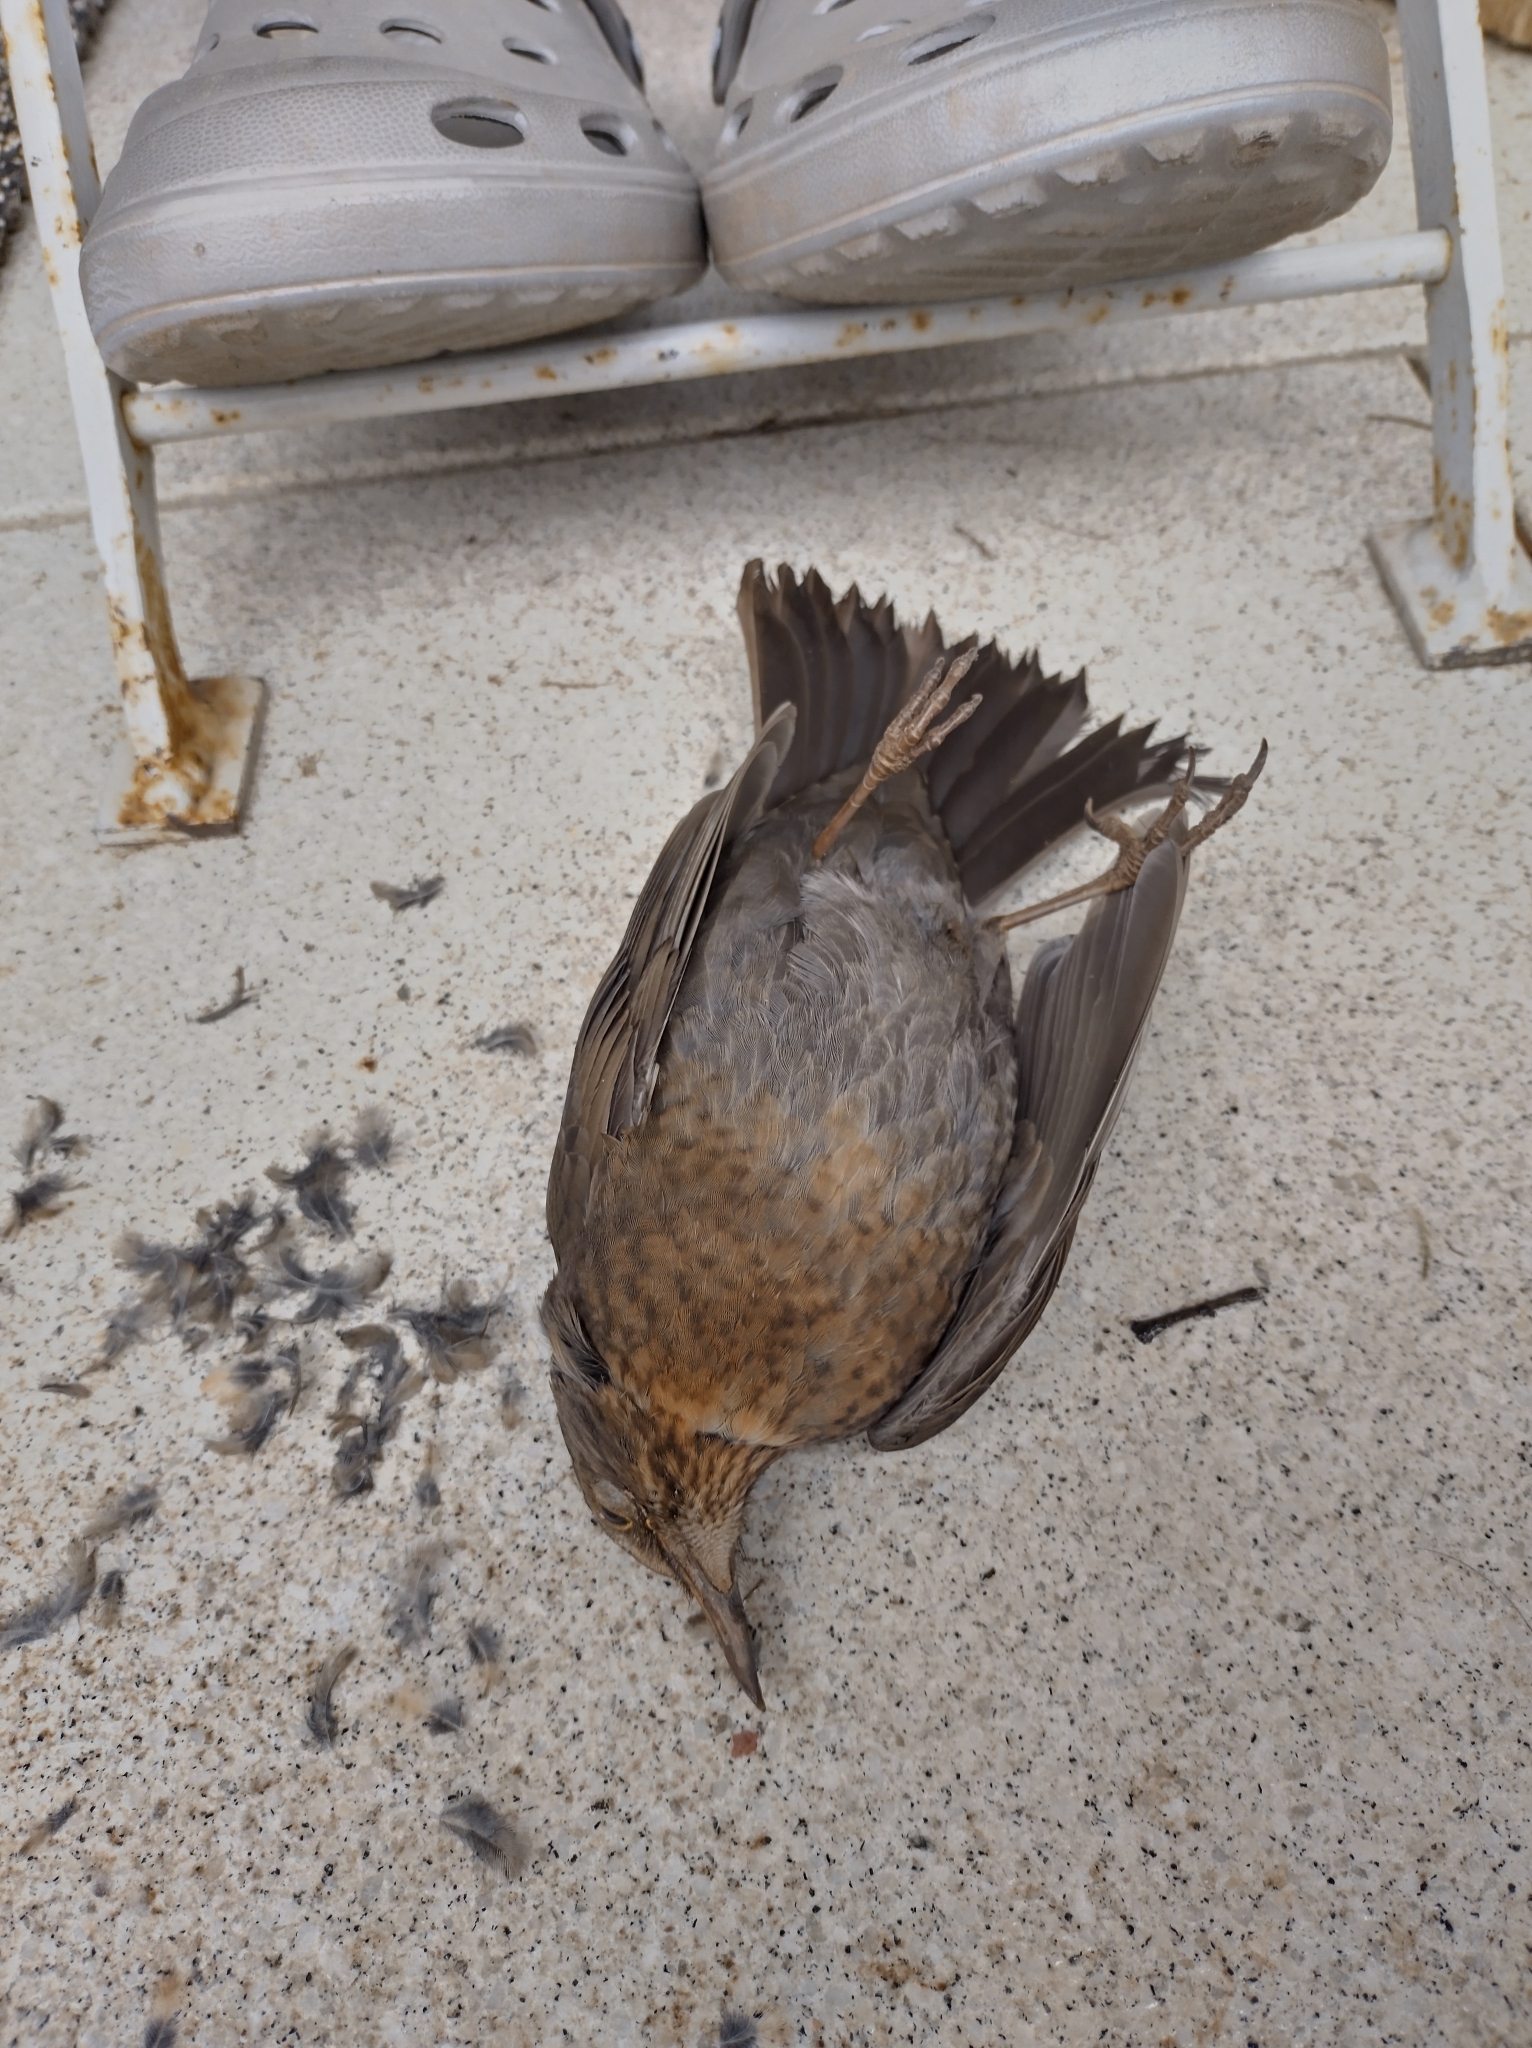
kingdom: Animalia
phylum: Chordata
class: Aves
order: Passeriformes
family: Turdidae
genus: Turdus
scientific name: Turdus merula
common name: Common blackbird
